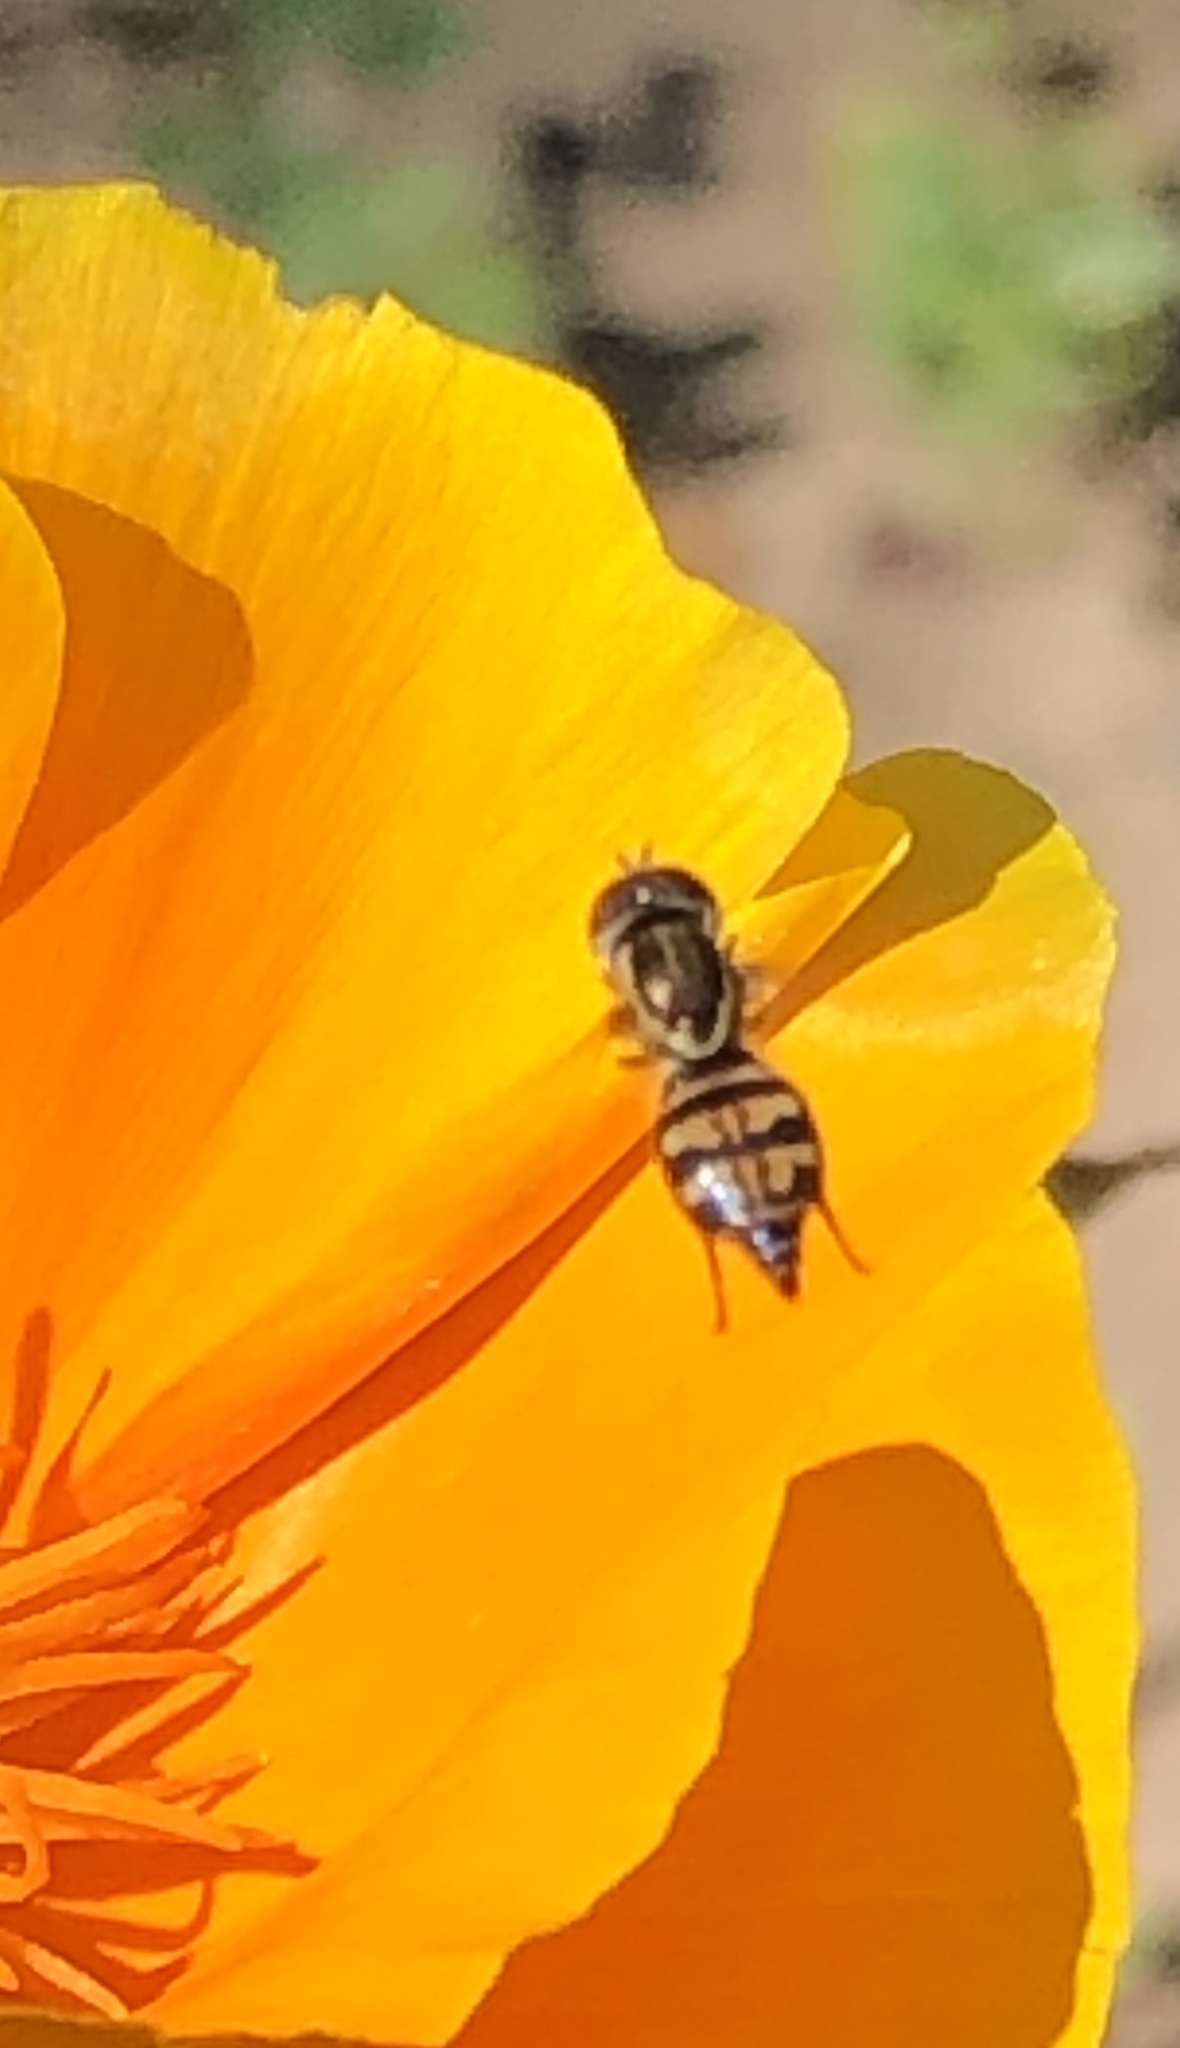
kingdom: Animalia
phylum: Arthropoda
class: Insecta
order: Diptera
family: Syrphidae
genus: Toxomerus
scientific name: Toxomerus occidentalis
